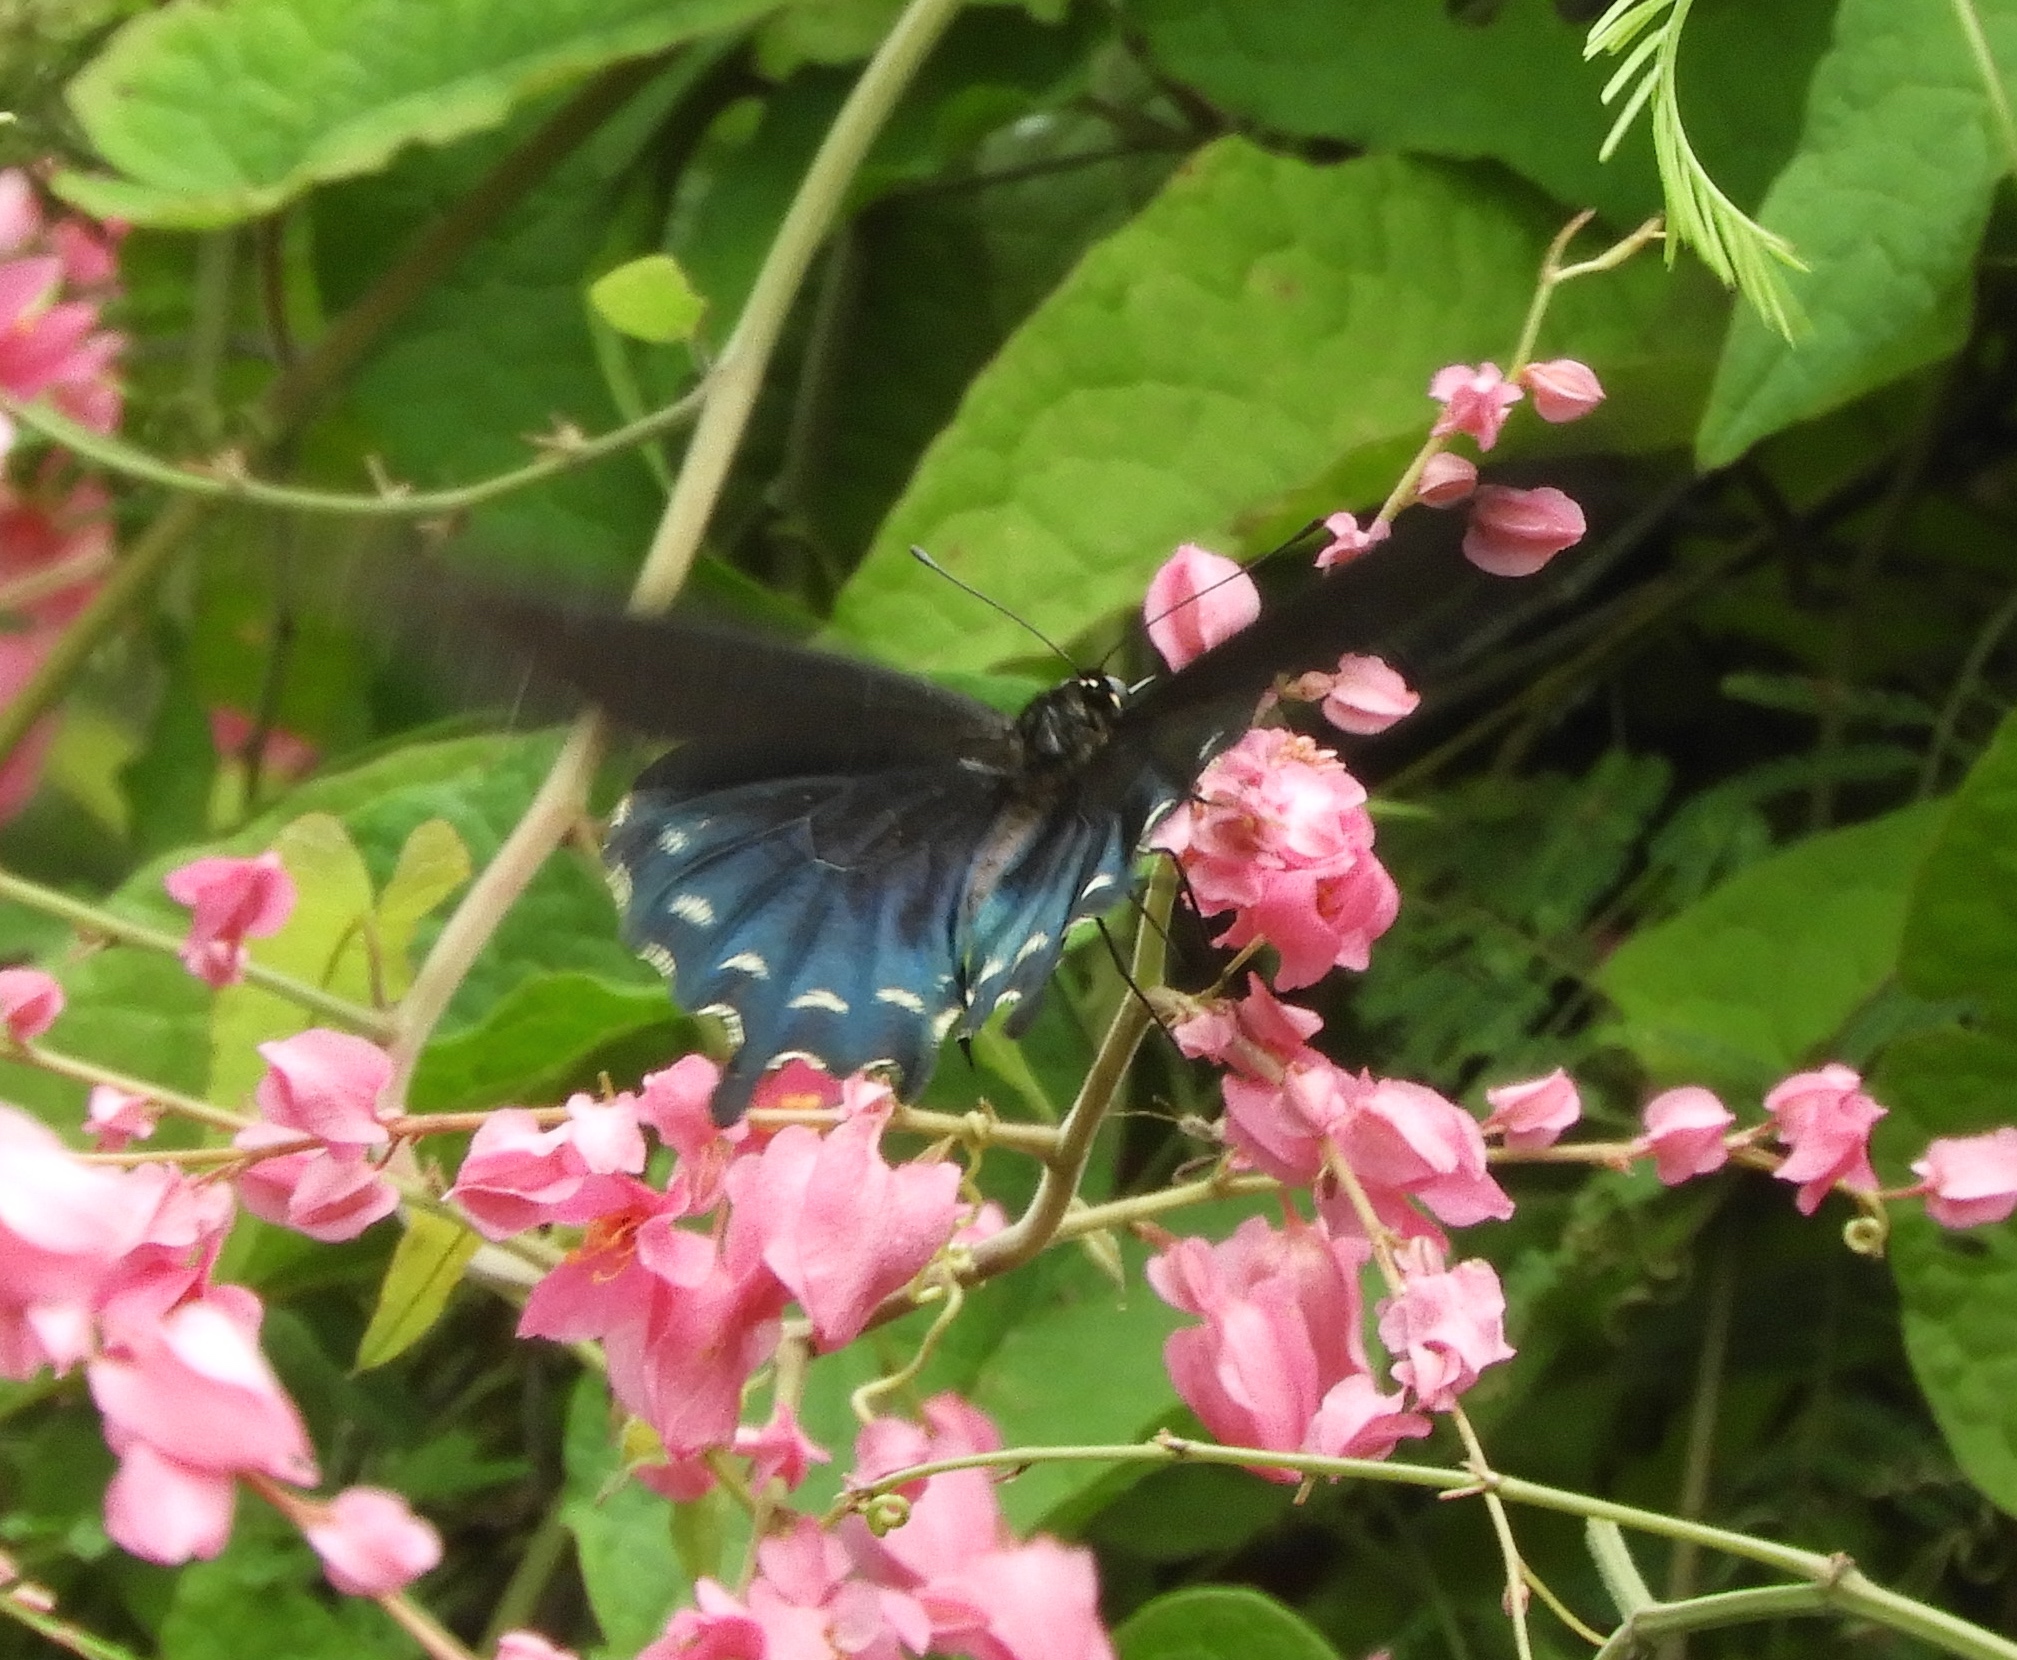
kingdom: Animalia
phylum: Arthropoda
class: Insecta
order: Lepidoptera
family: Papilionidae
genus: Battus
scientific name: Battus philenor
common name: Pipevine swallowtail
